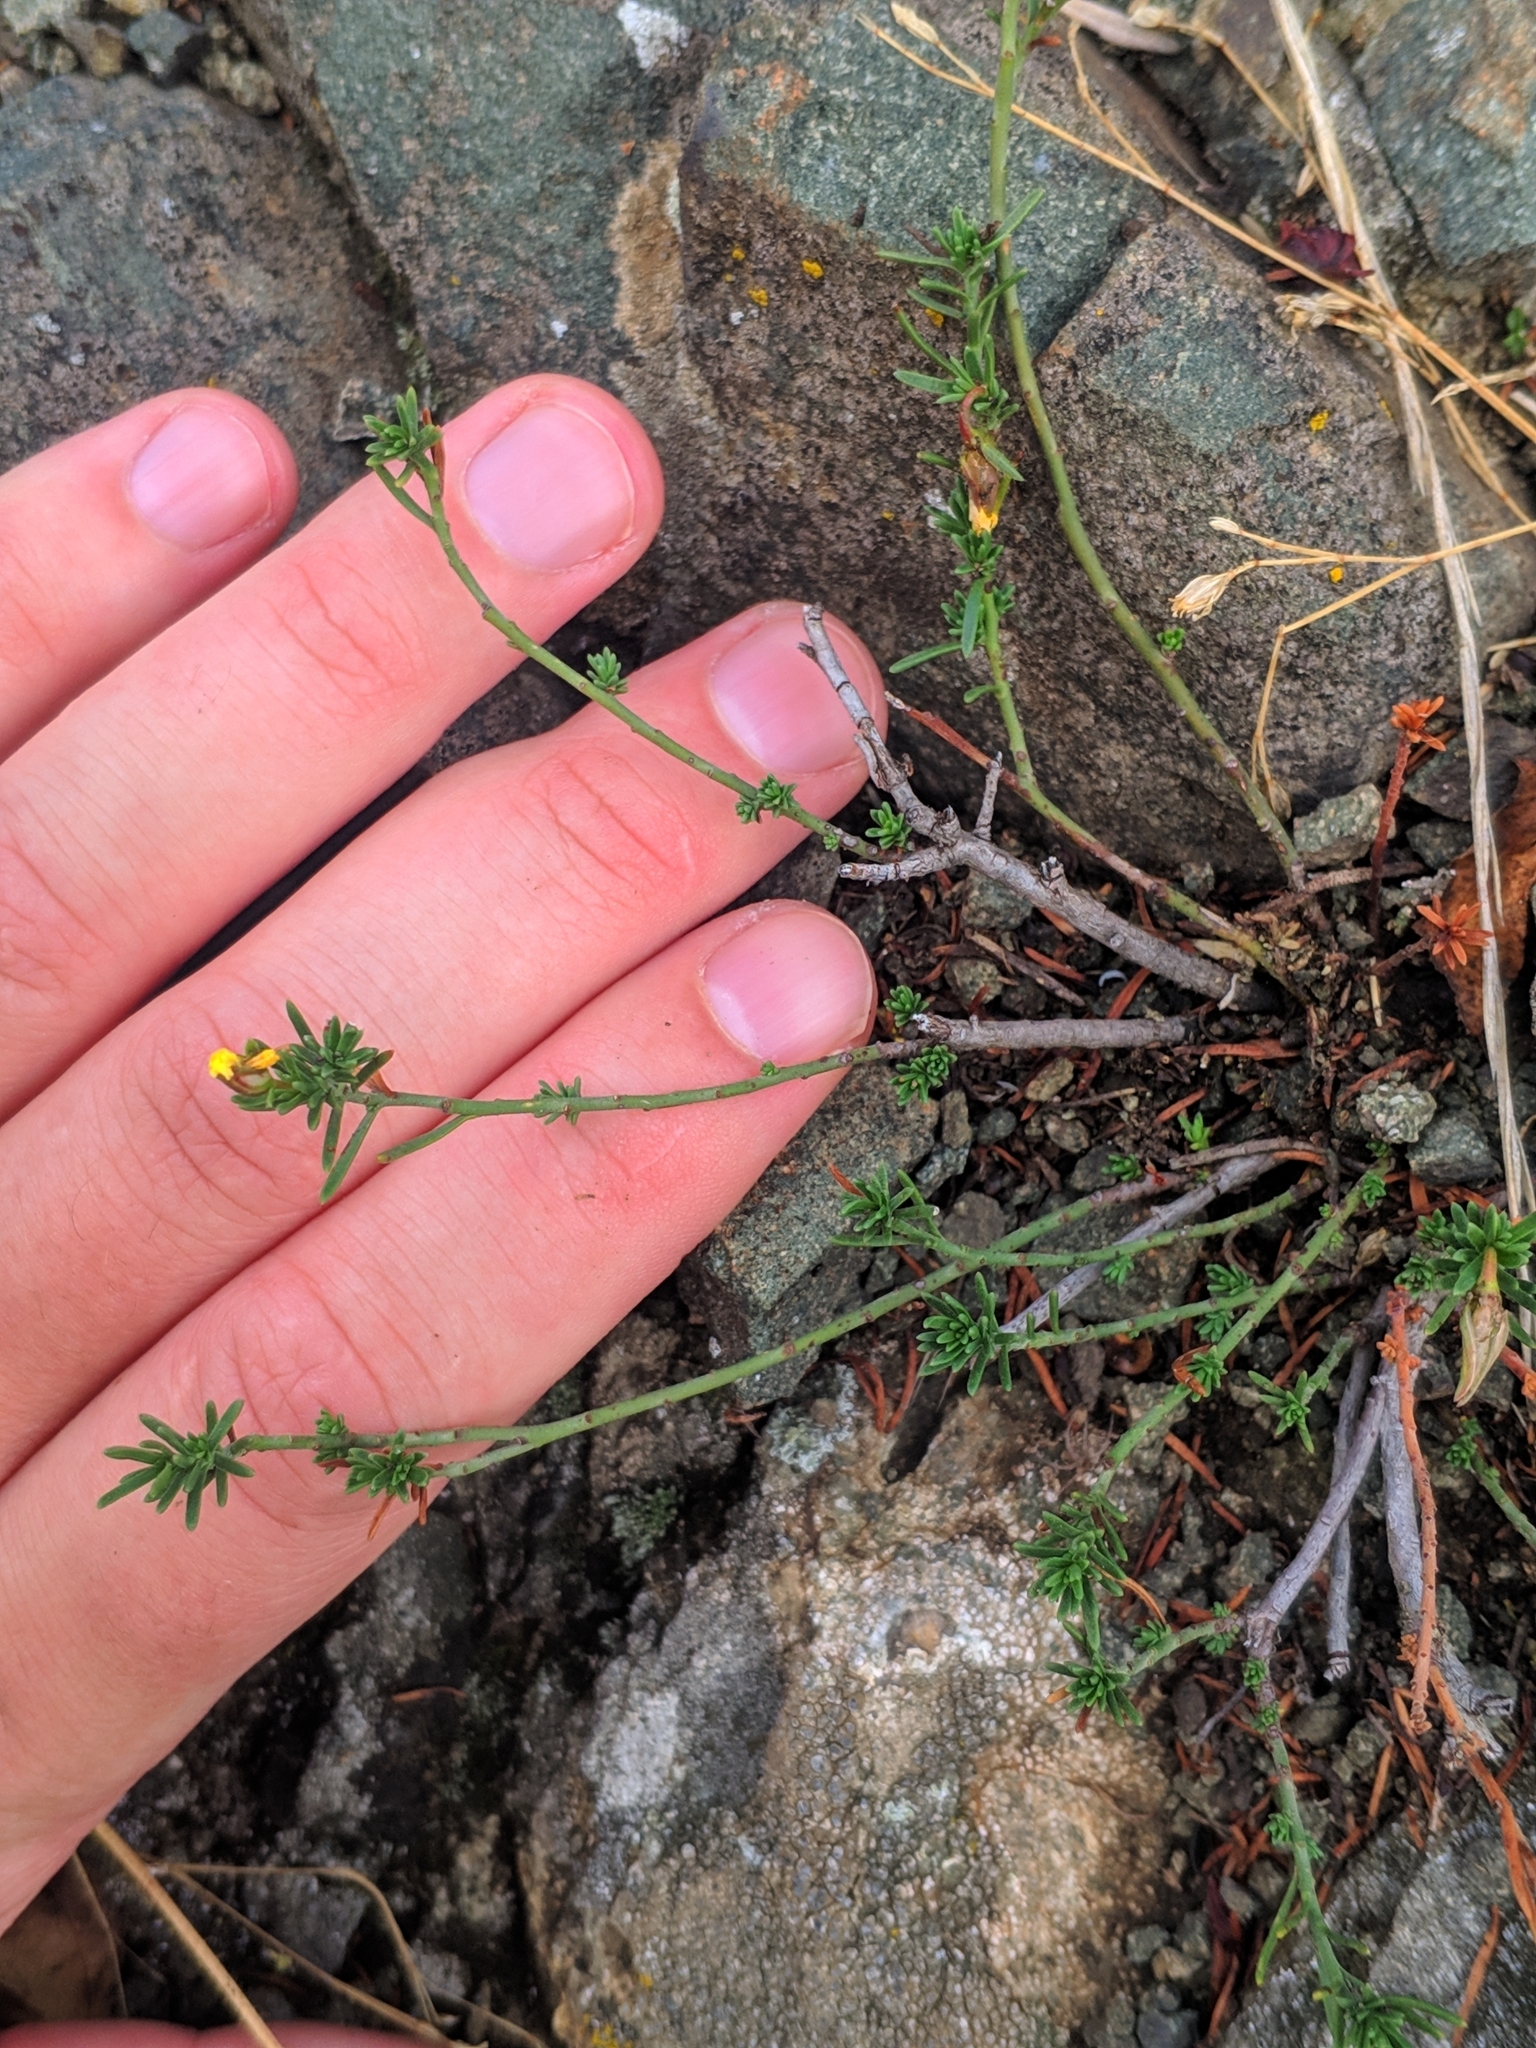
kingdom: Plantae
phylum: Tracheophyta
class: Magnoliopsida
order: Malvales
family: Cistaceae
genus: Fumana
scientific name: Fumana procumbens
